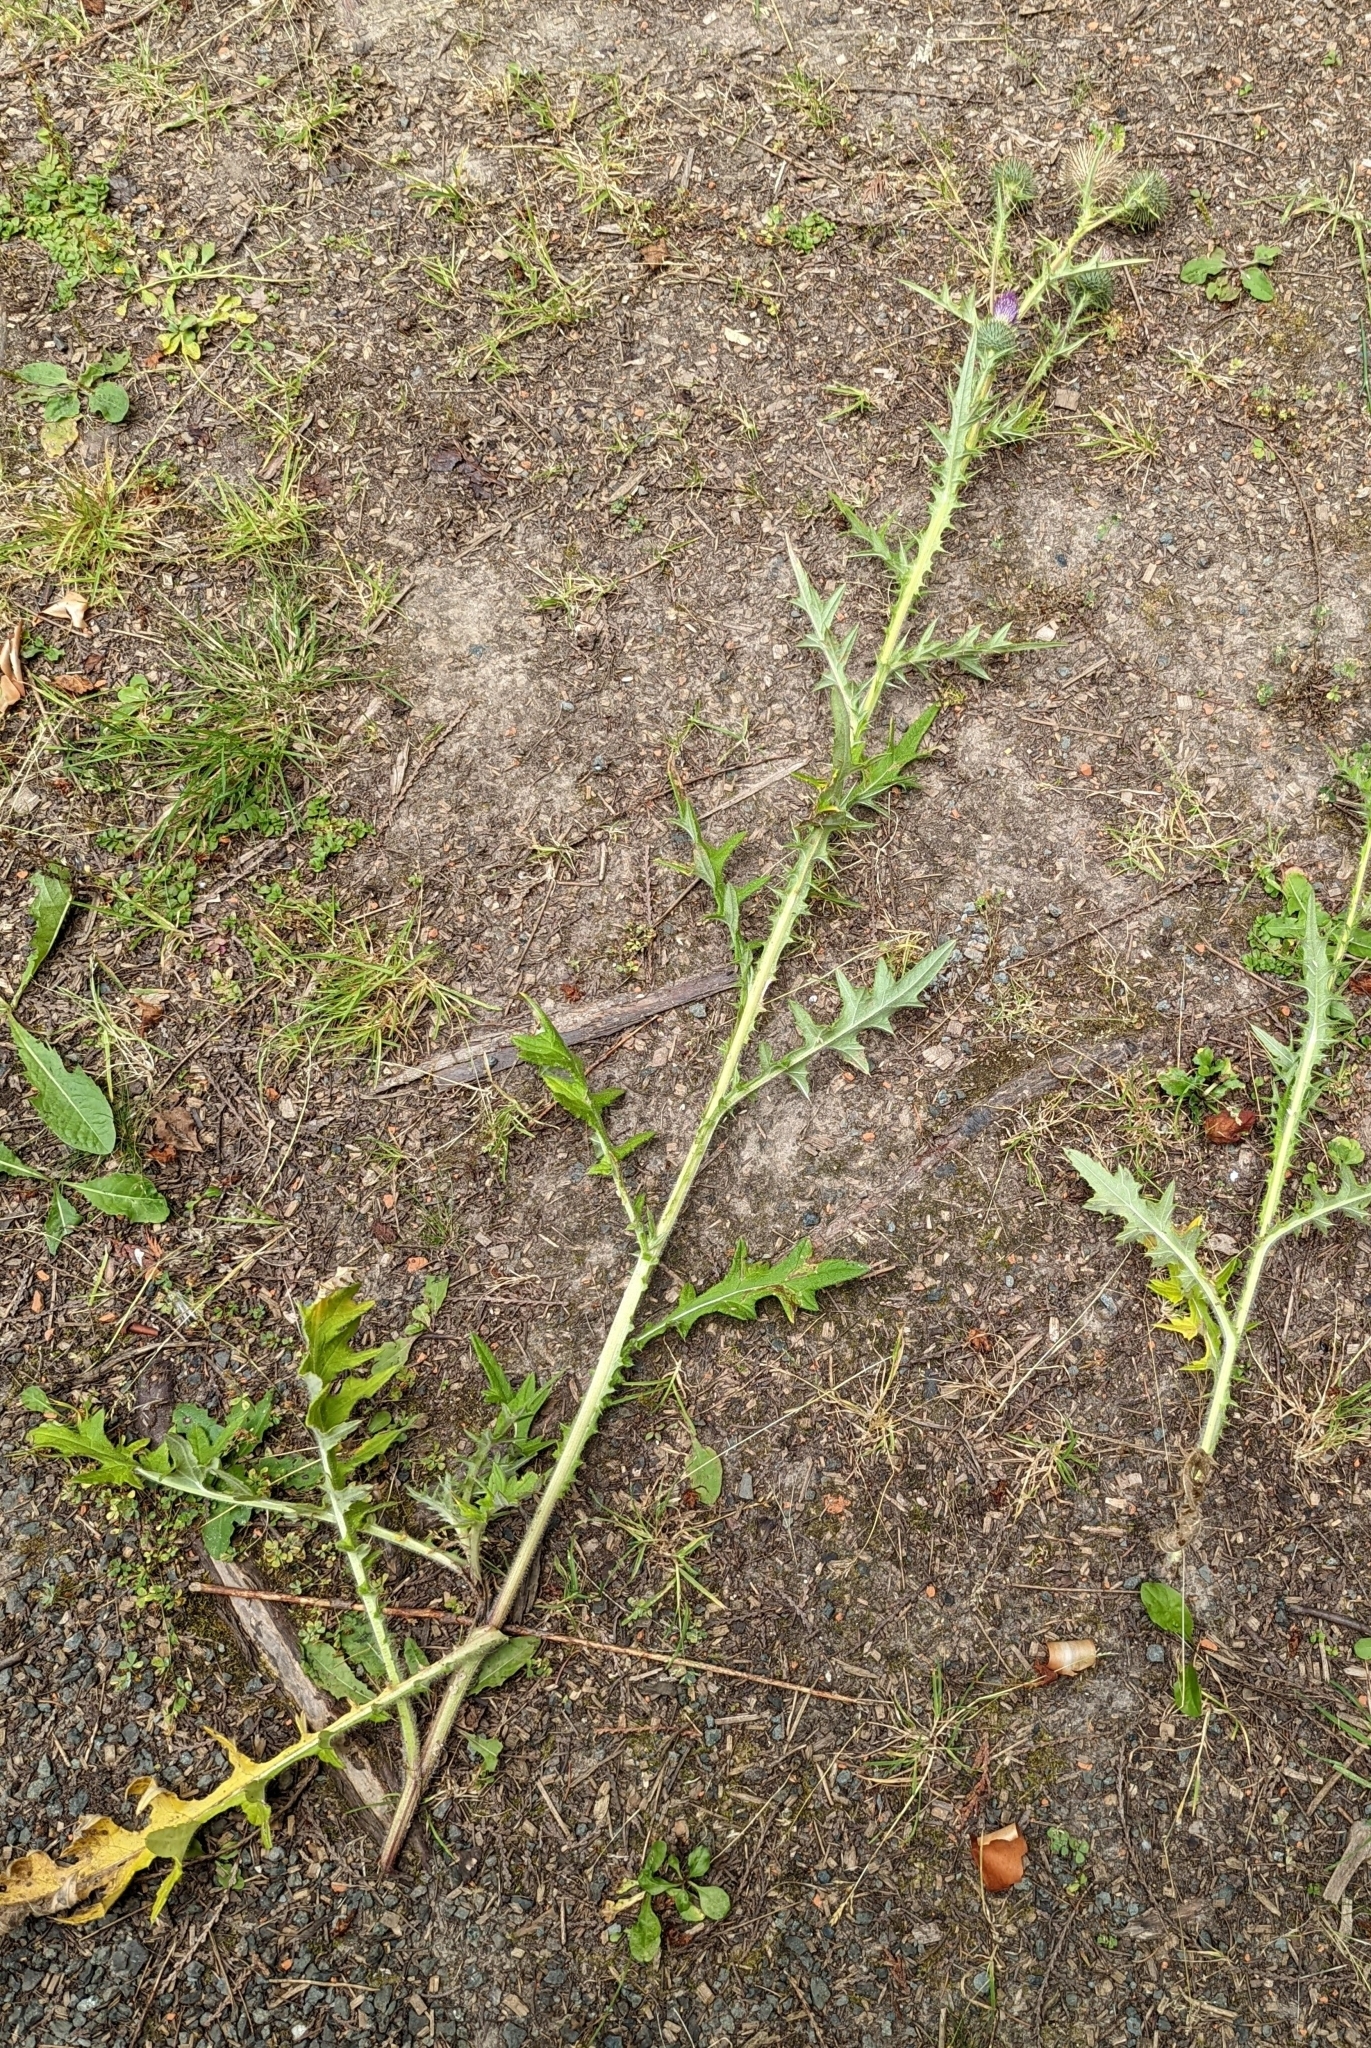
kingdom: Plantae
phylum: Tracheophyta
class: Magnoliopsida
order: Asterales
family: Asteraceae
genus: Cirsium
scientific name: Cirsium vulgare
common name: Bull thistle
